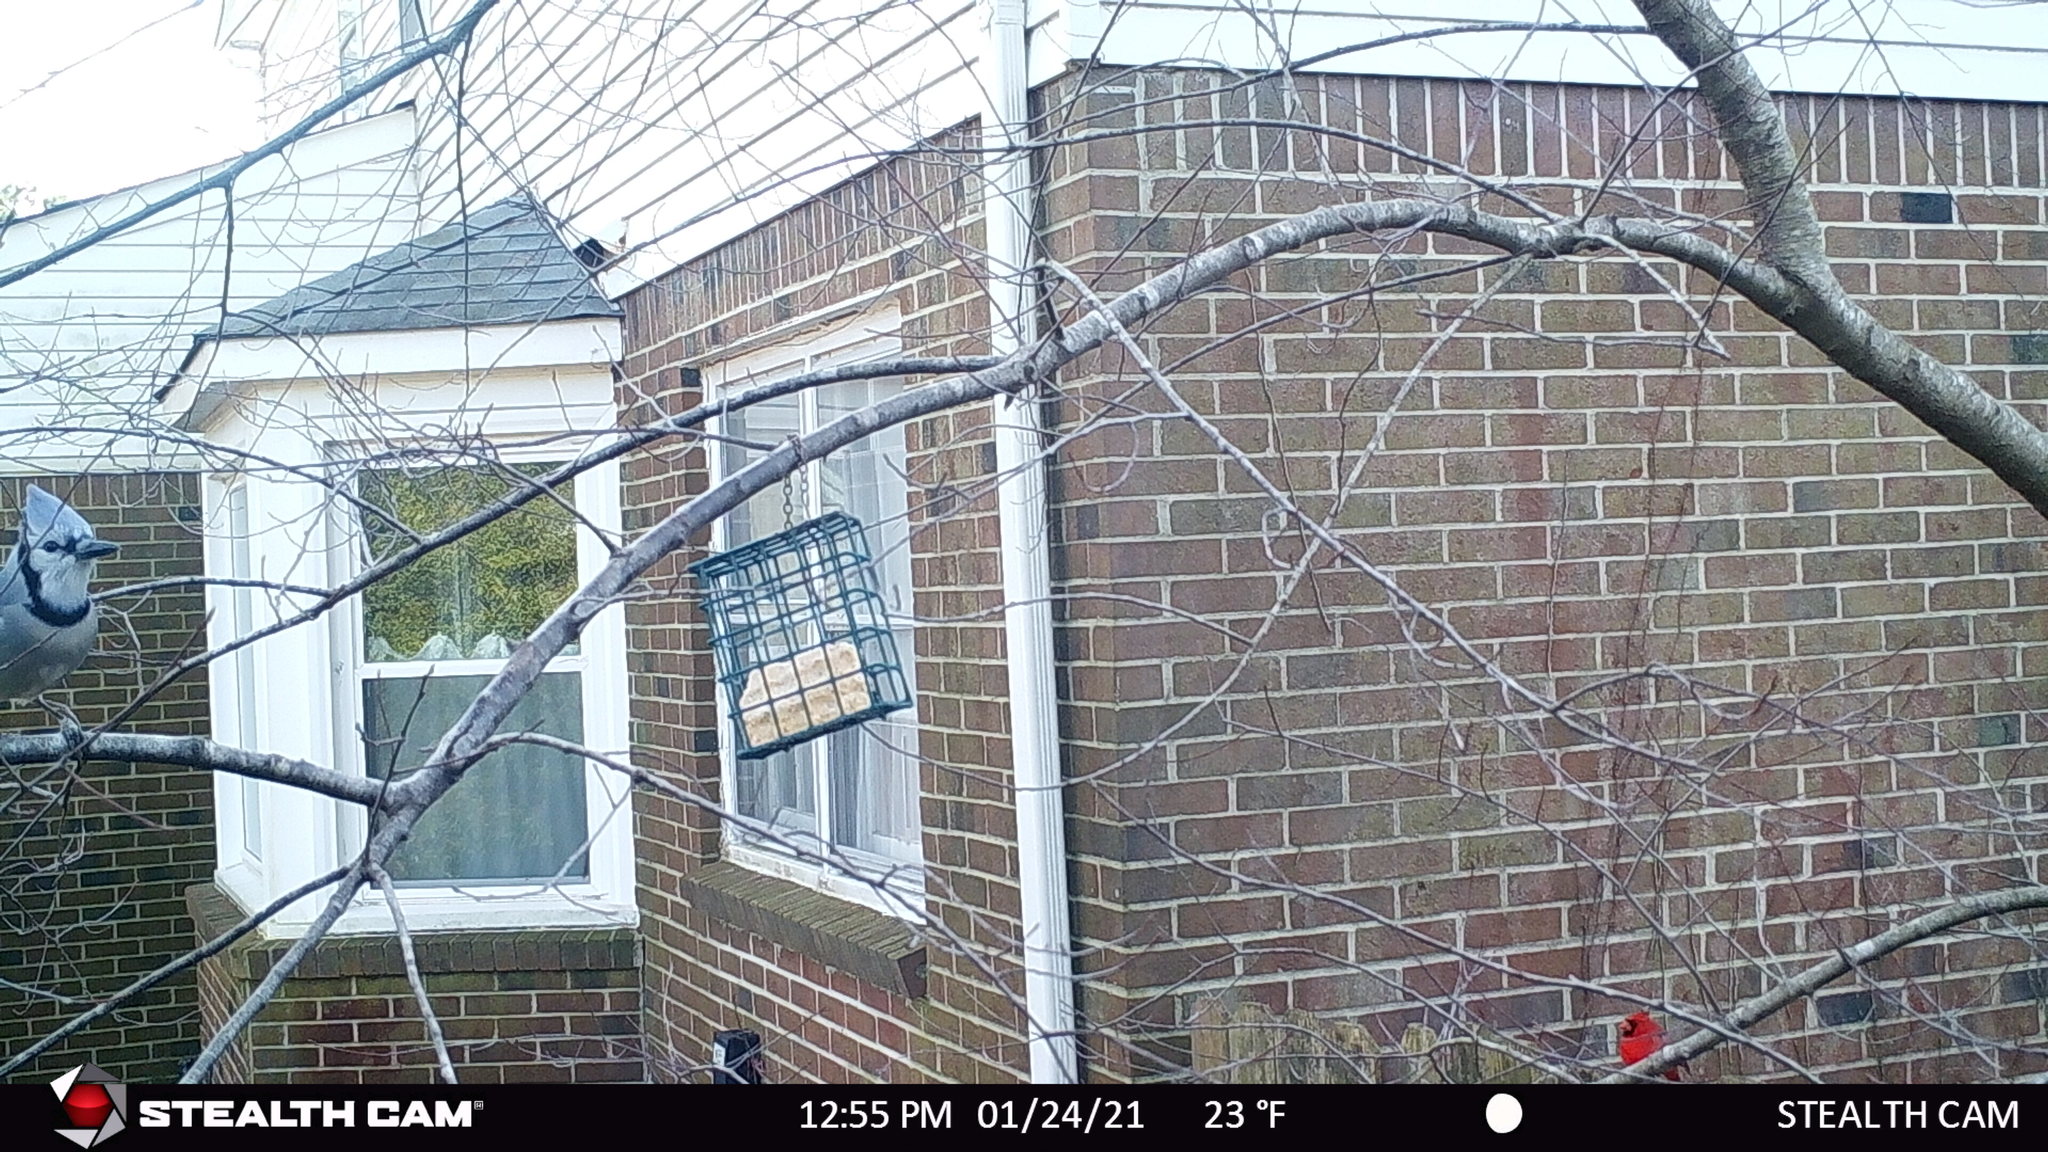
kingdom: Animalia
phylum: Chordata
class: Aves
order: Passeriformes
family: Cardinalidae
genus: Cardinalis
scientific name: Cardinalis cardinalis
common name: Northern cardinal
